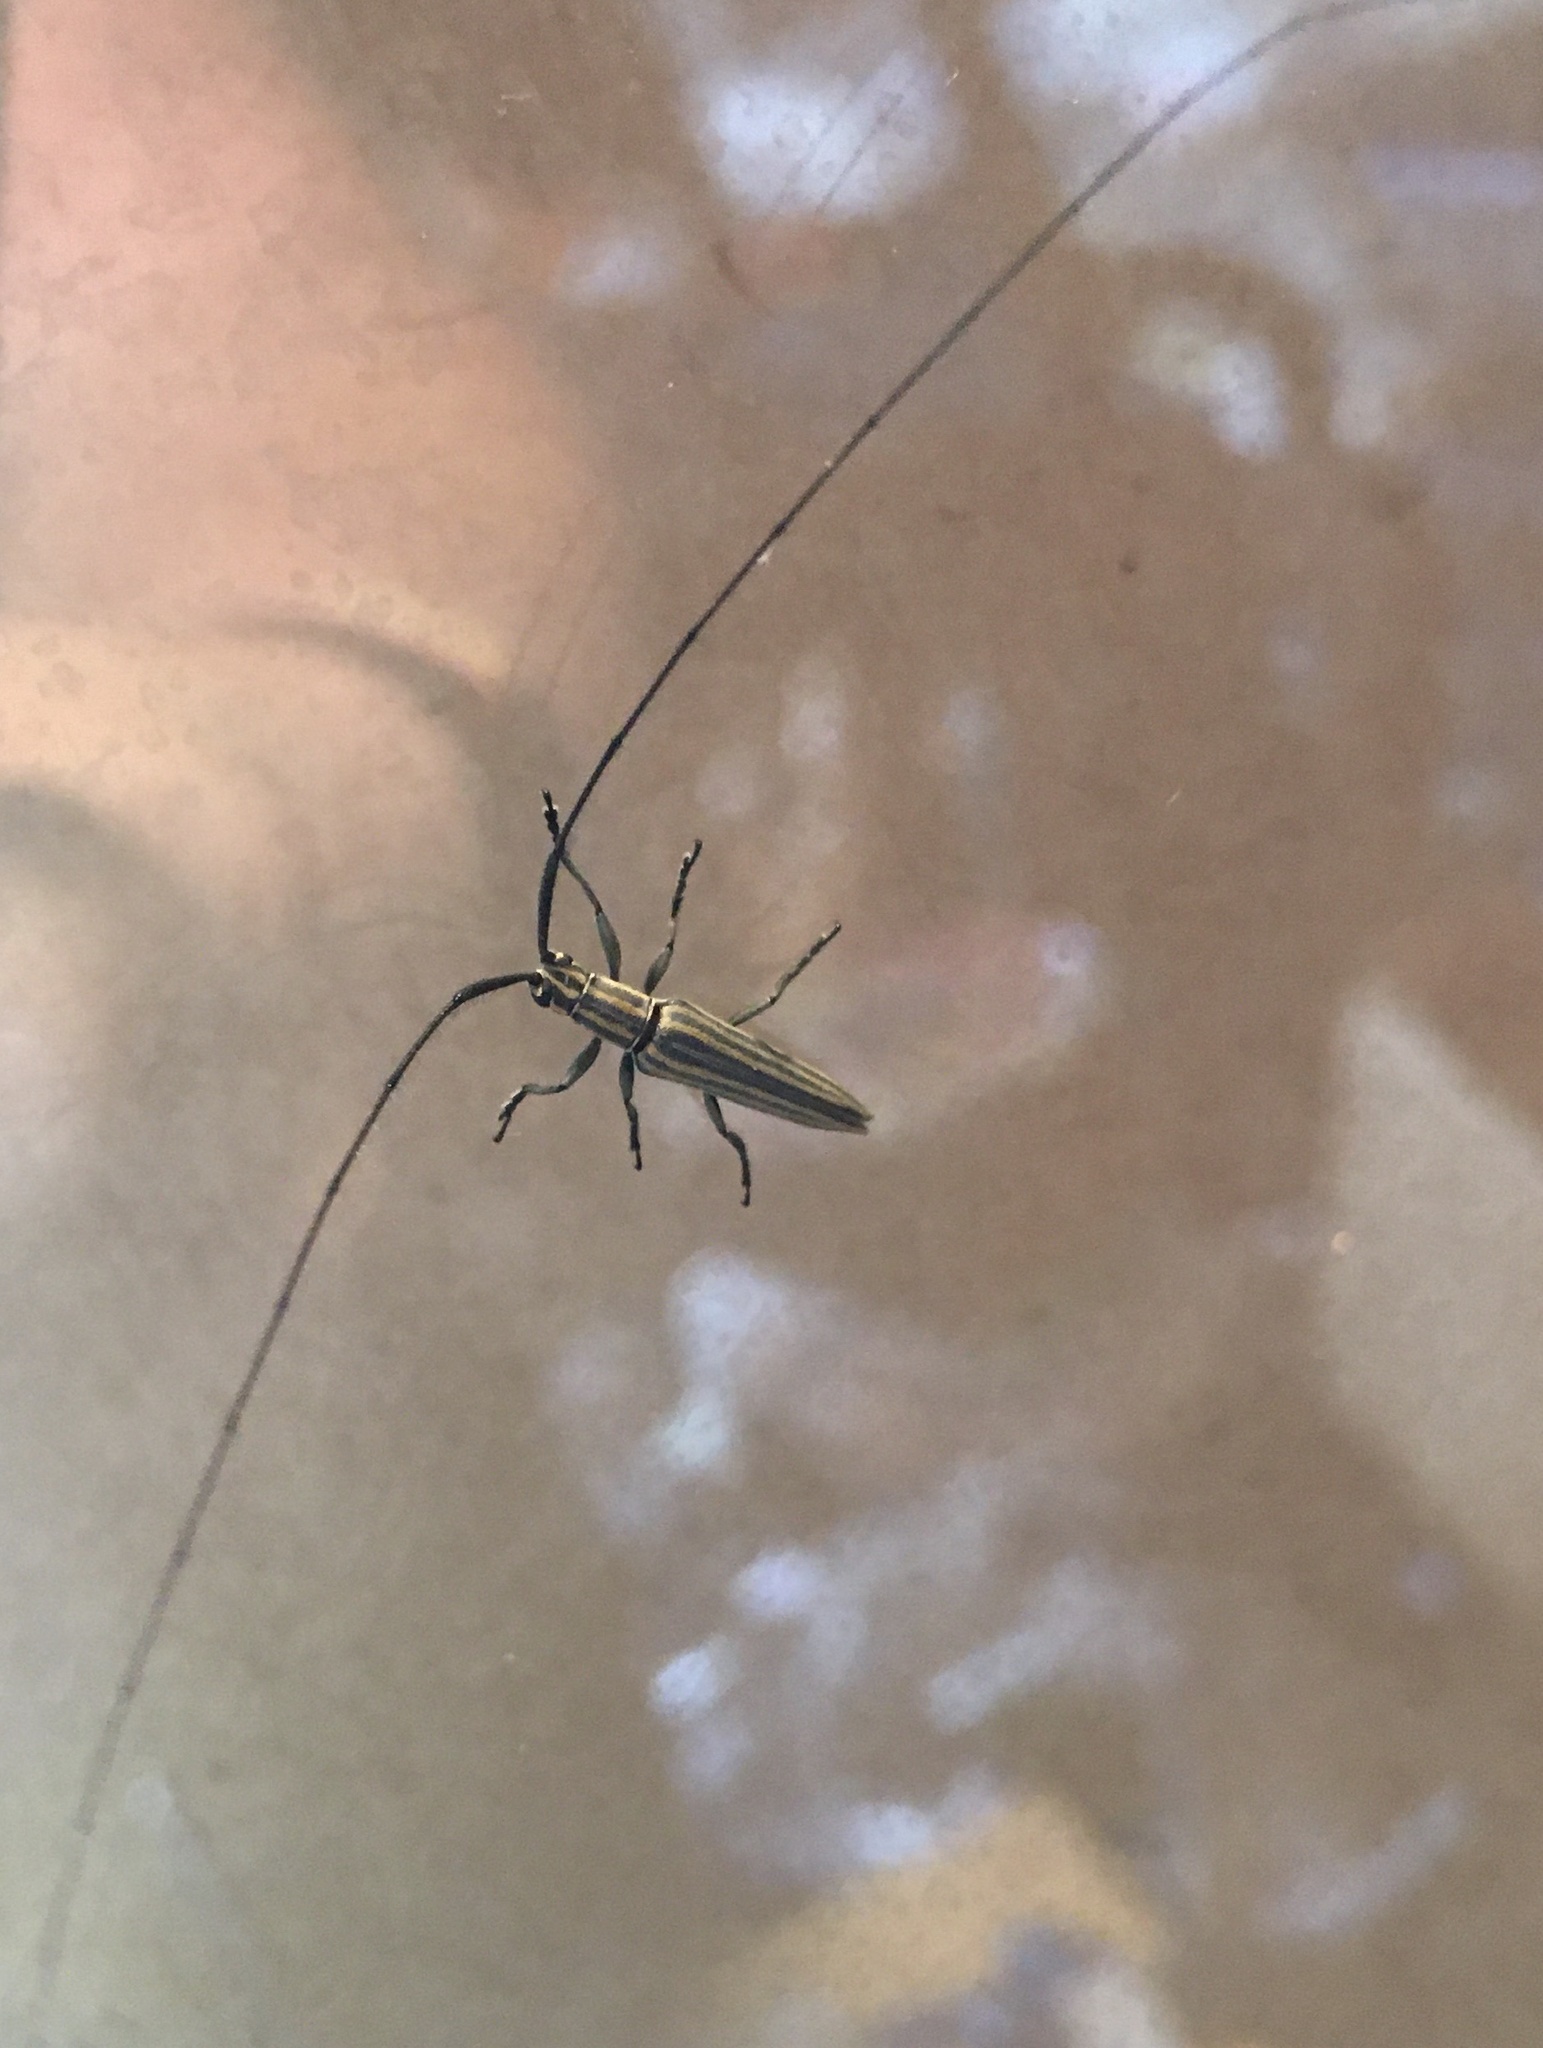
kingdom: Animalia
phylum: Arthropoda
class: Insecta
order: Coleoptera
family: Cerambycidae
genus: Hippopsis
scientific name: Hippopsis
